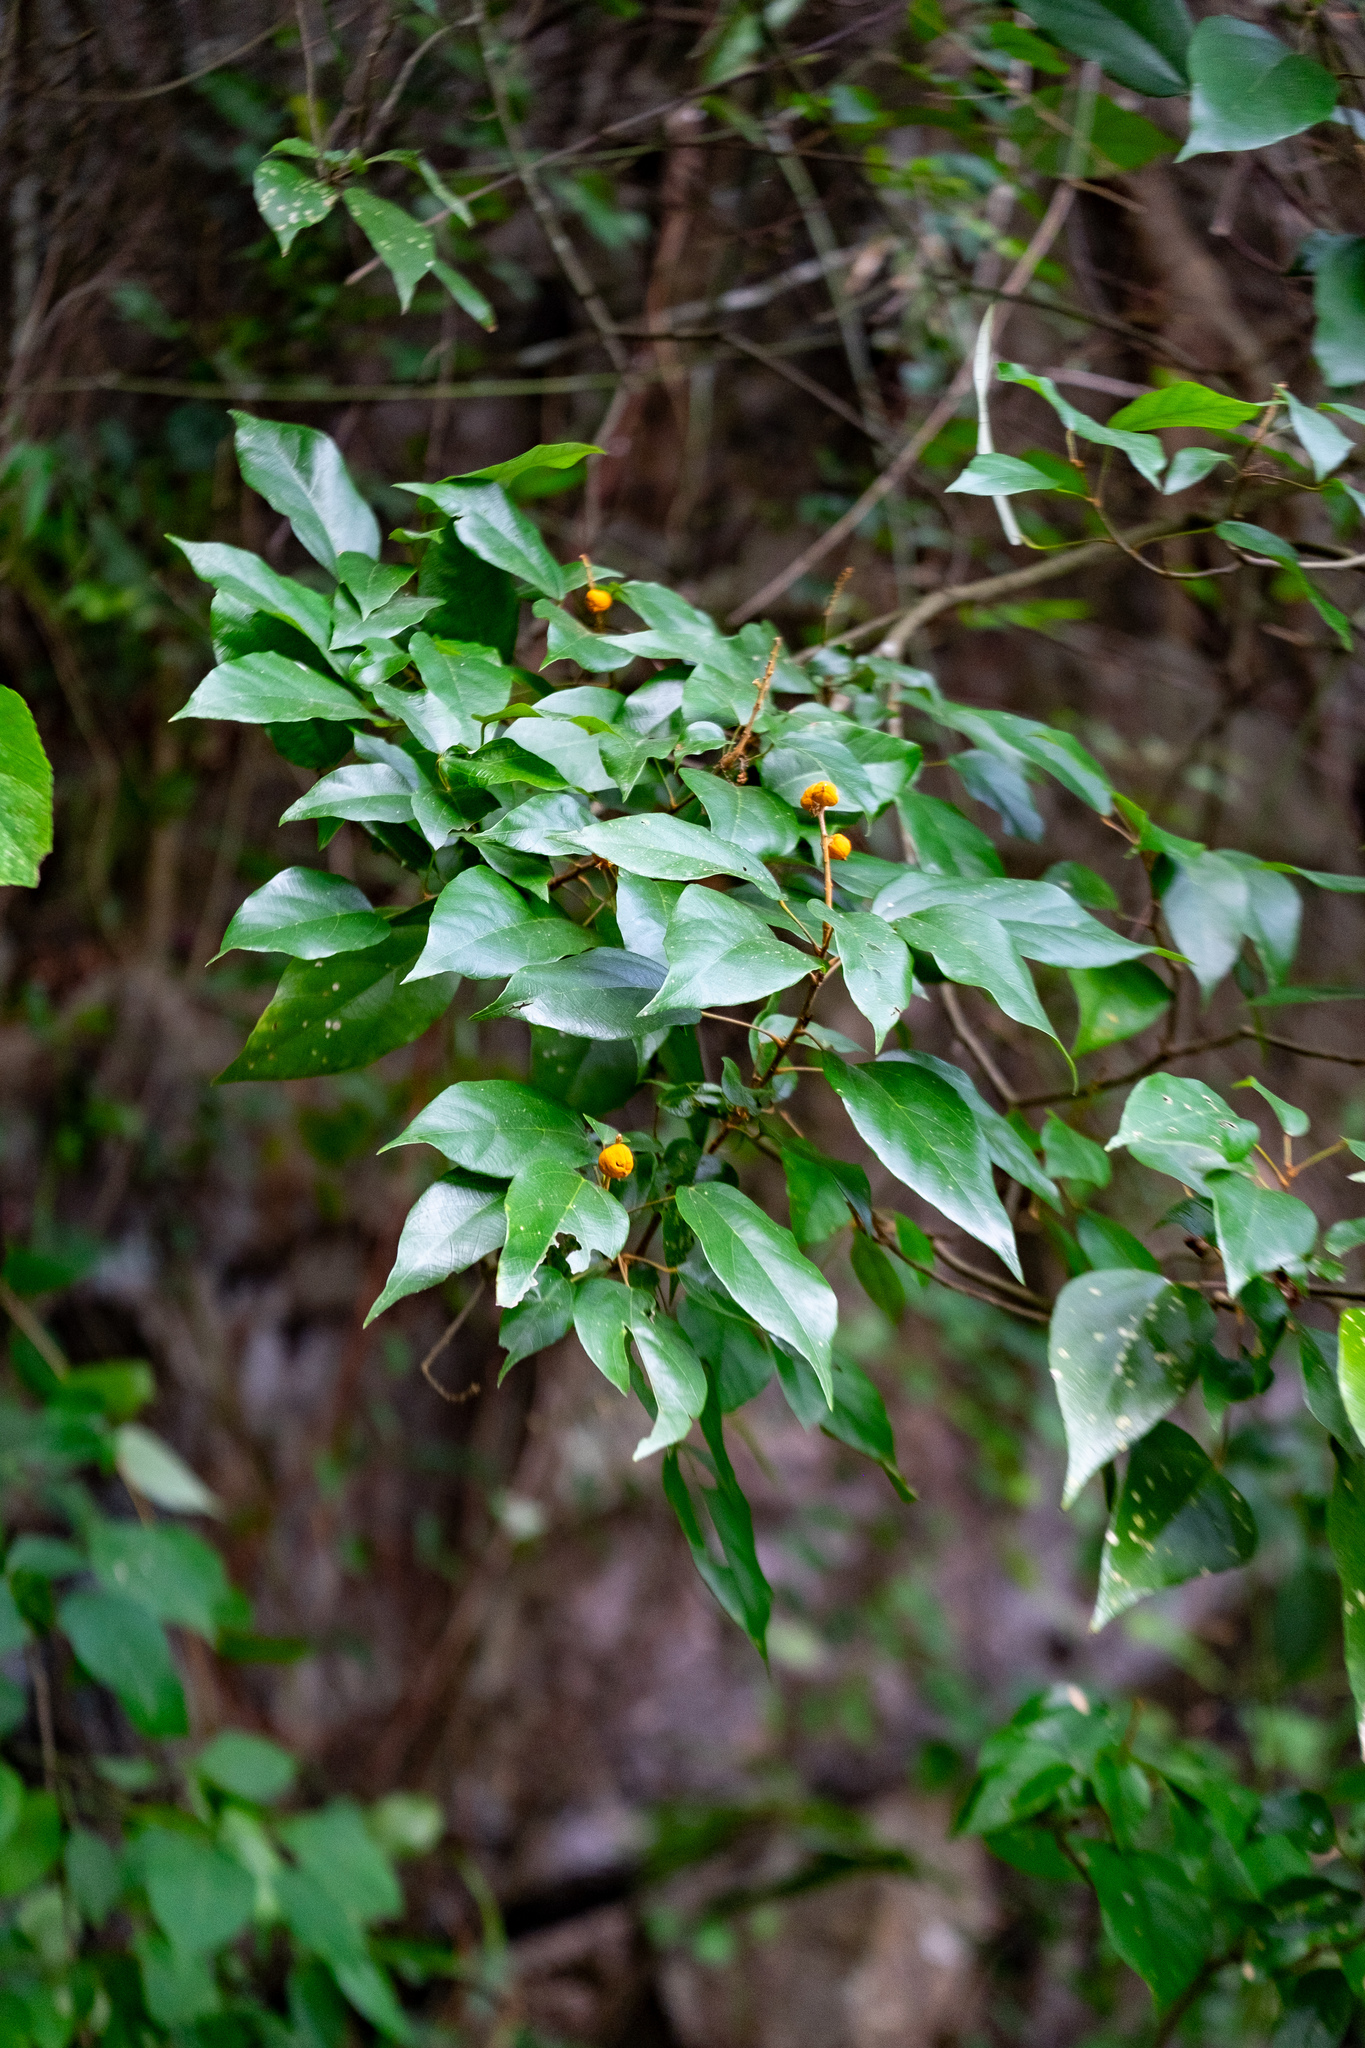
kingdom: Plantae
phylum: Tracheophyta
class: Magnoliopsida
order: Malpighiales
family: Euphorbiaceae
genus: Mallotus
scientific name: Mallotus philippensis
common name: Kamala tree
